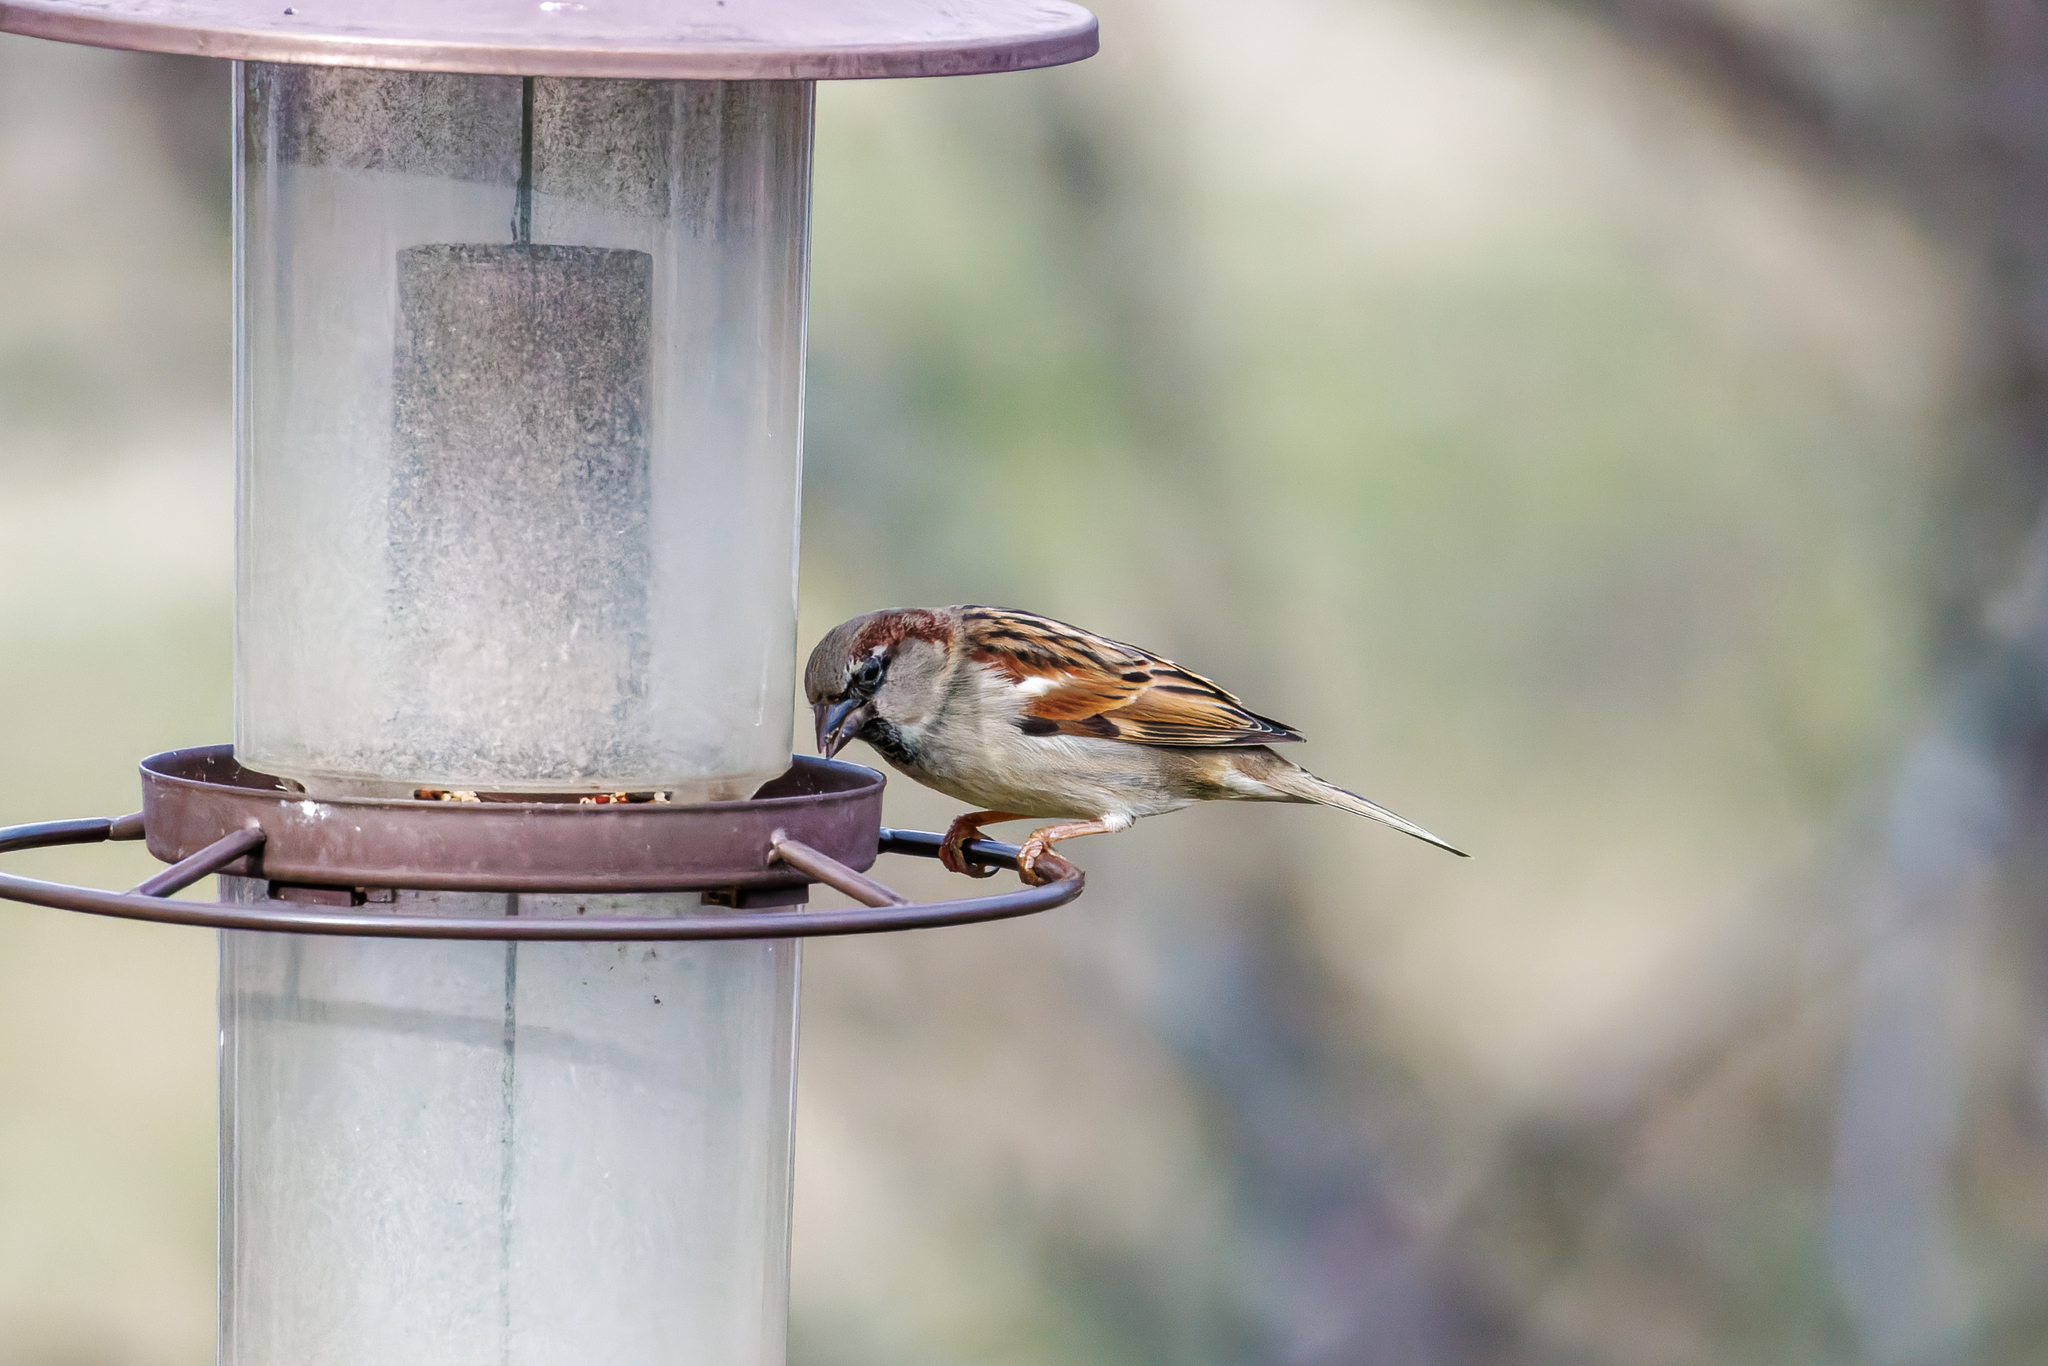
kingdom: Animalia
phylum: Chordata
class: Aves
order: Passeriformes
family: Passeridae
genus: Passer
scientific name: Passer domesticus
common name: House sparrow
